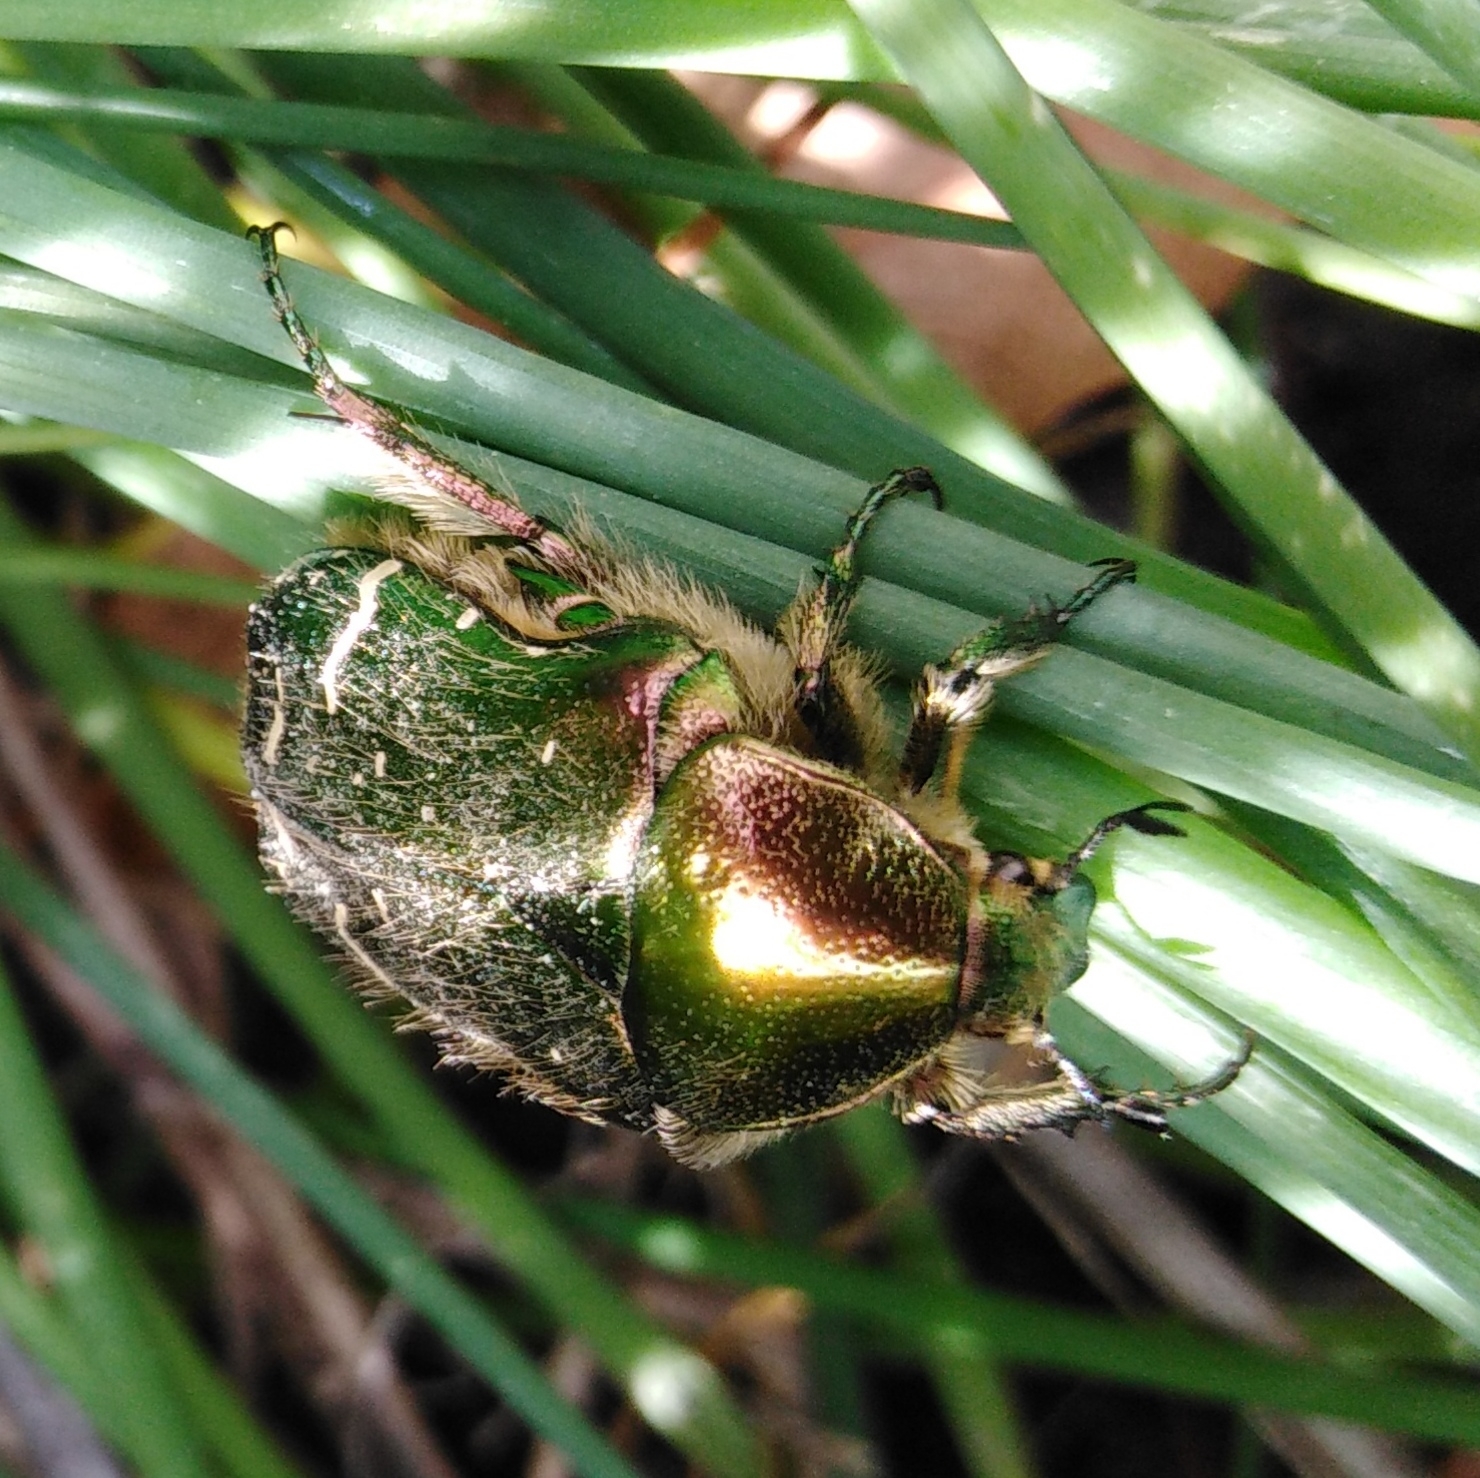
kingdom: Animalia
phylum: Arthropoda
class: Insecta
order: Coleoptera
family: Scarabaeidae
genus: Cetonia
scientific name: Cetonia aurata
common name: Rose chafer
